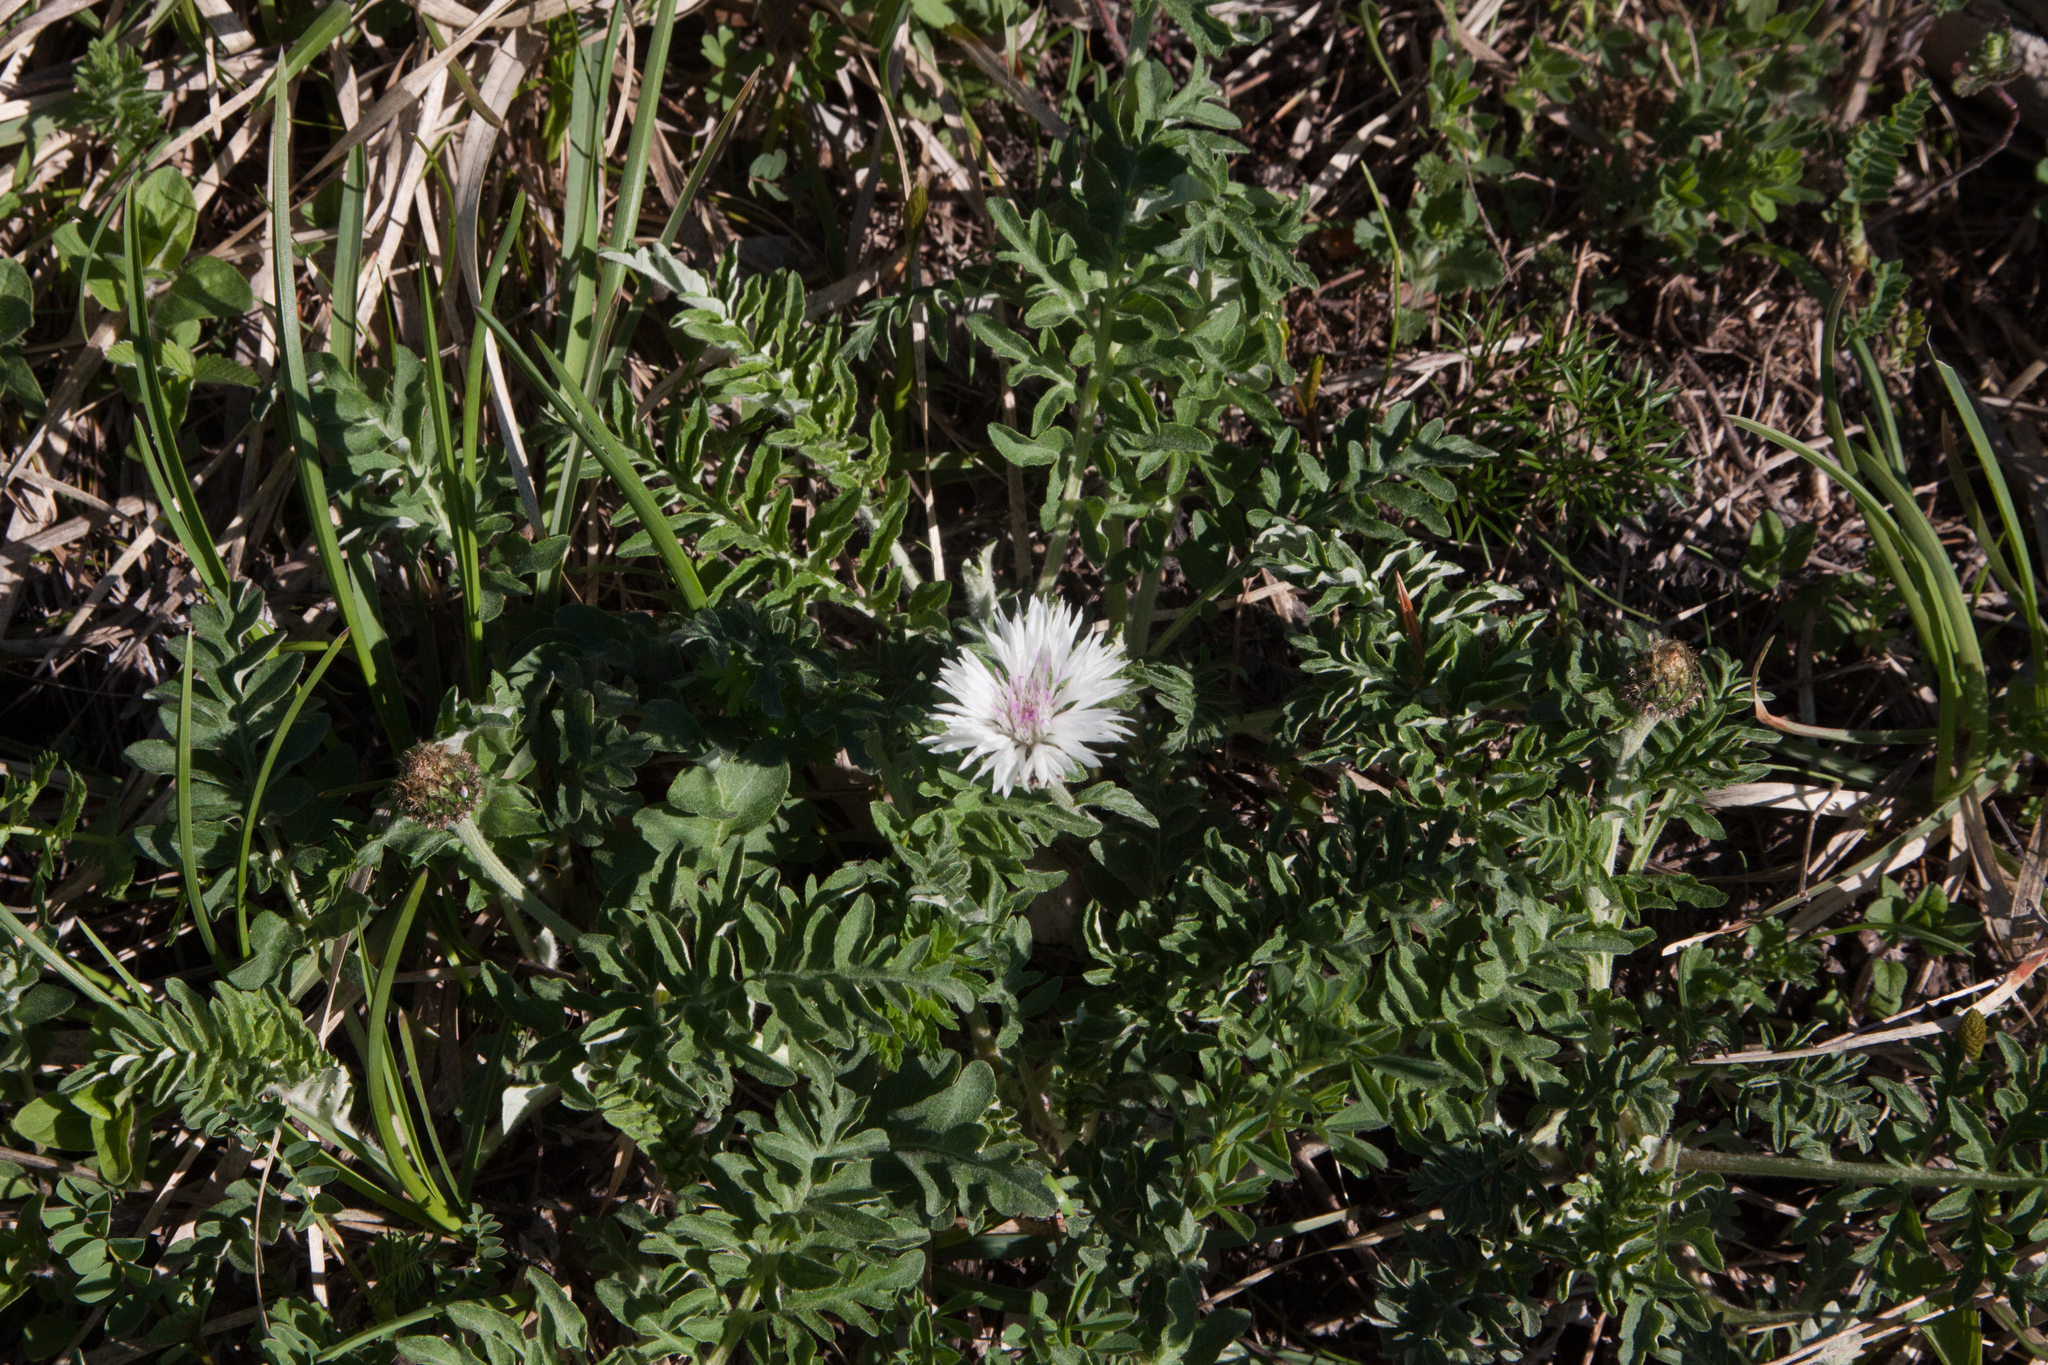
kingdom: Plantae
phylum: Tracheophyta
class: Magnoliopsida
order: Asterales
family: Asteraceae
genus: Psephellus
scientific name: Psephellus declinatus
